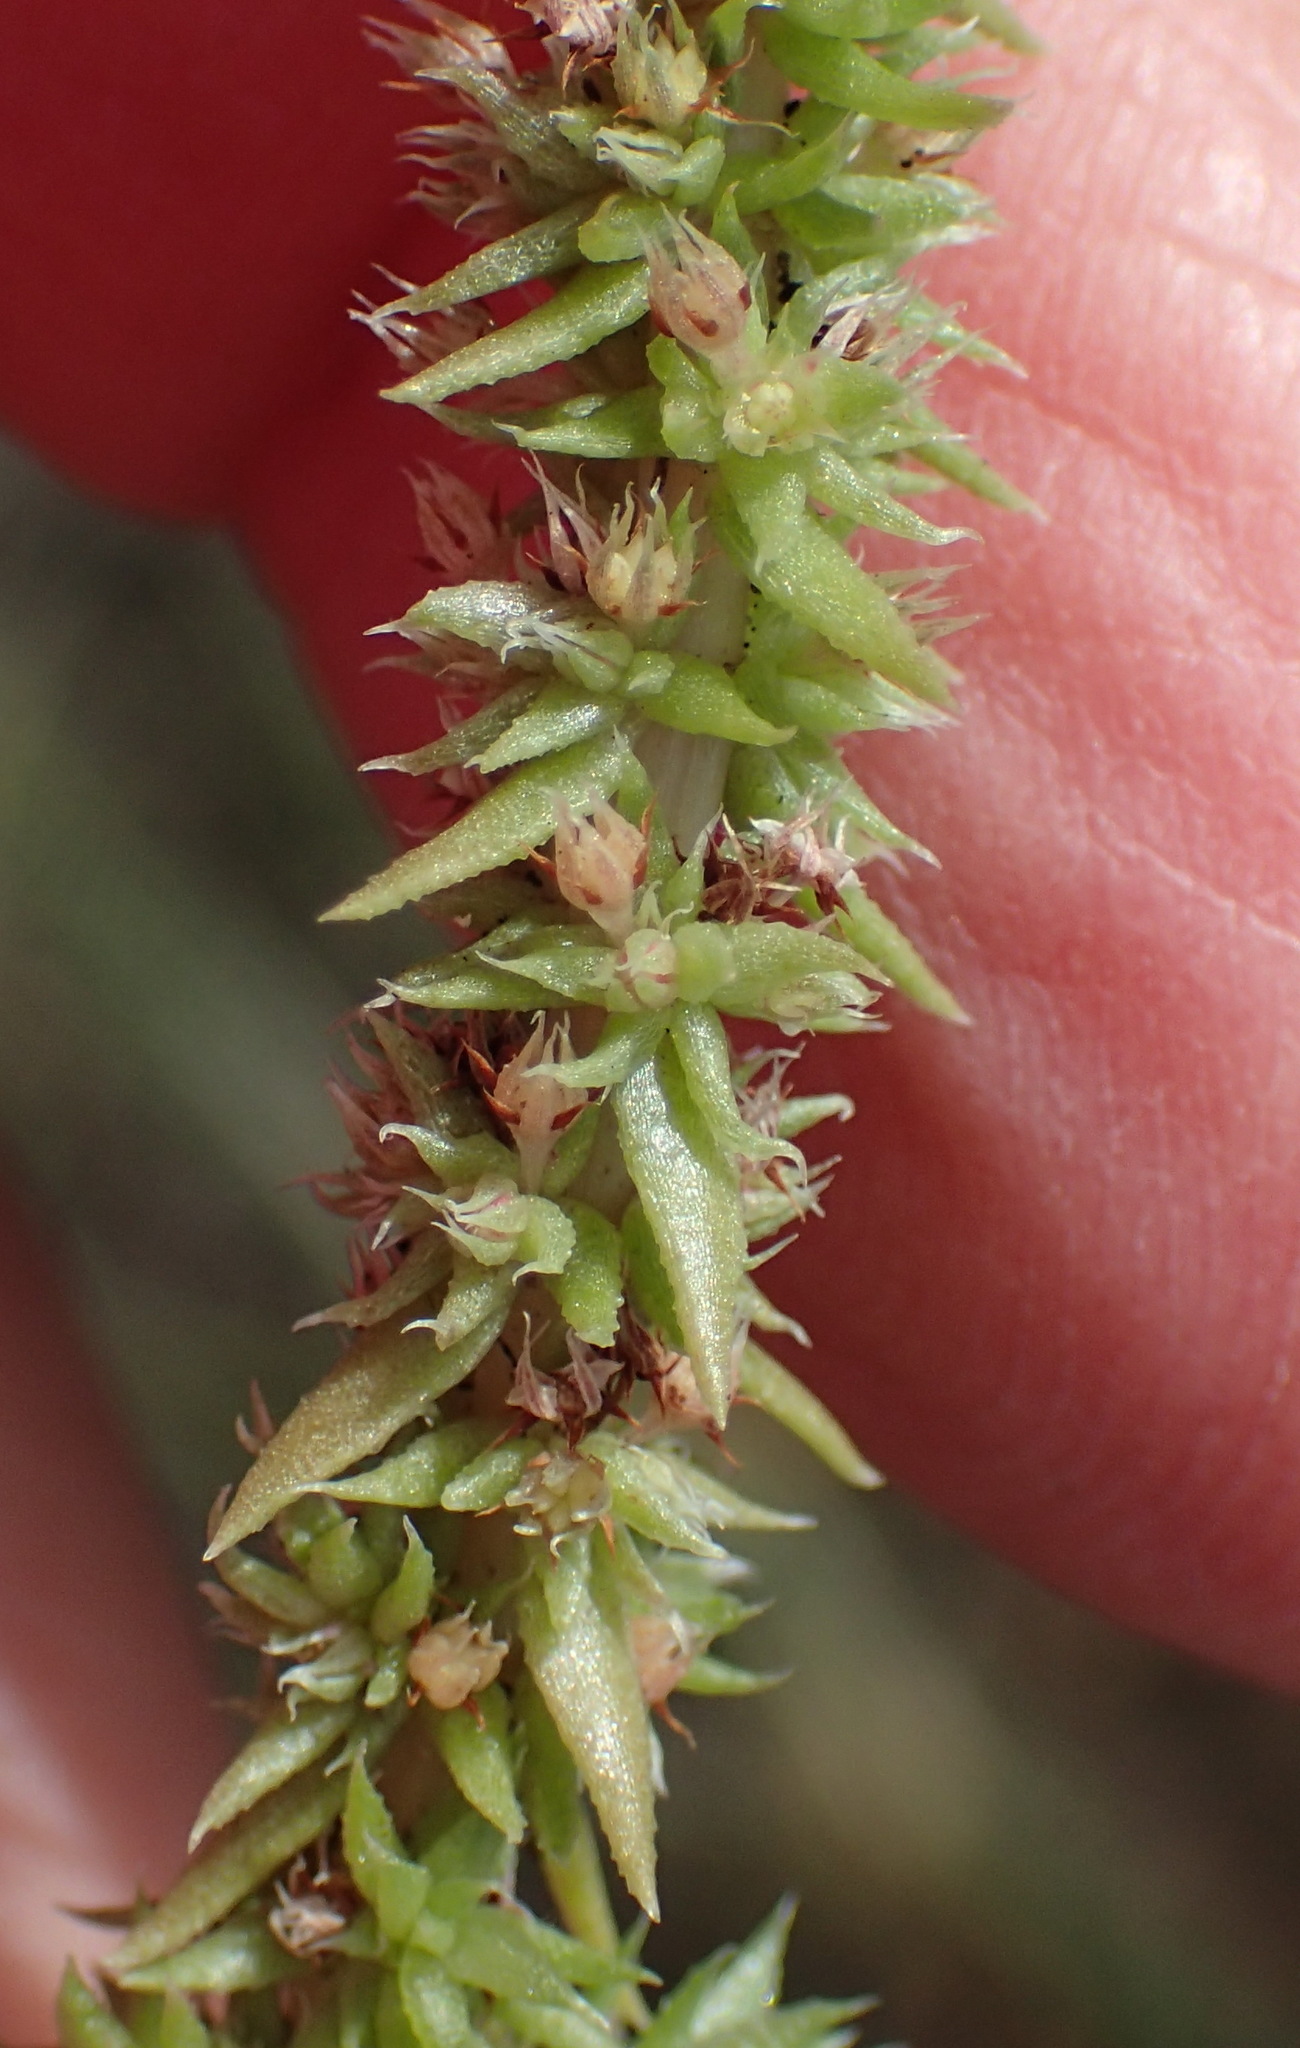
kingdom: Plantae
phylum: Tracheophyta
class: Magnoliopsida
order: Saxifragales
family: Crassulaceae
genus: Crassula
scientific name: Crassula campestris
